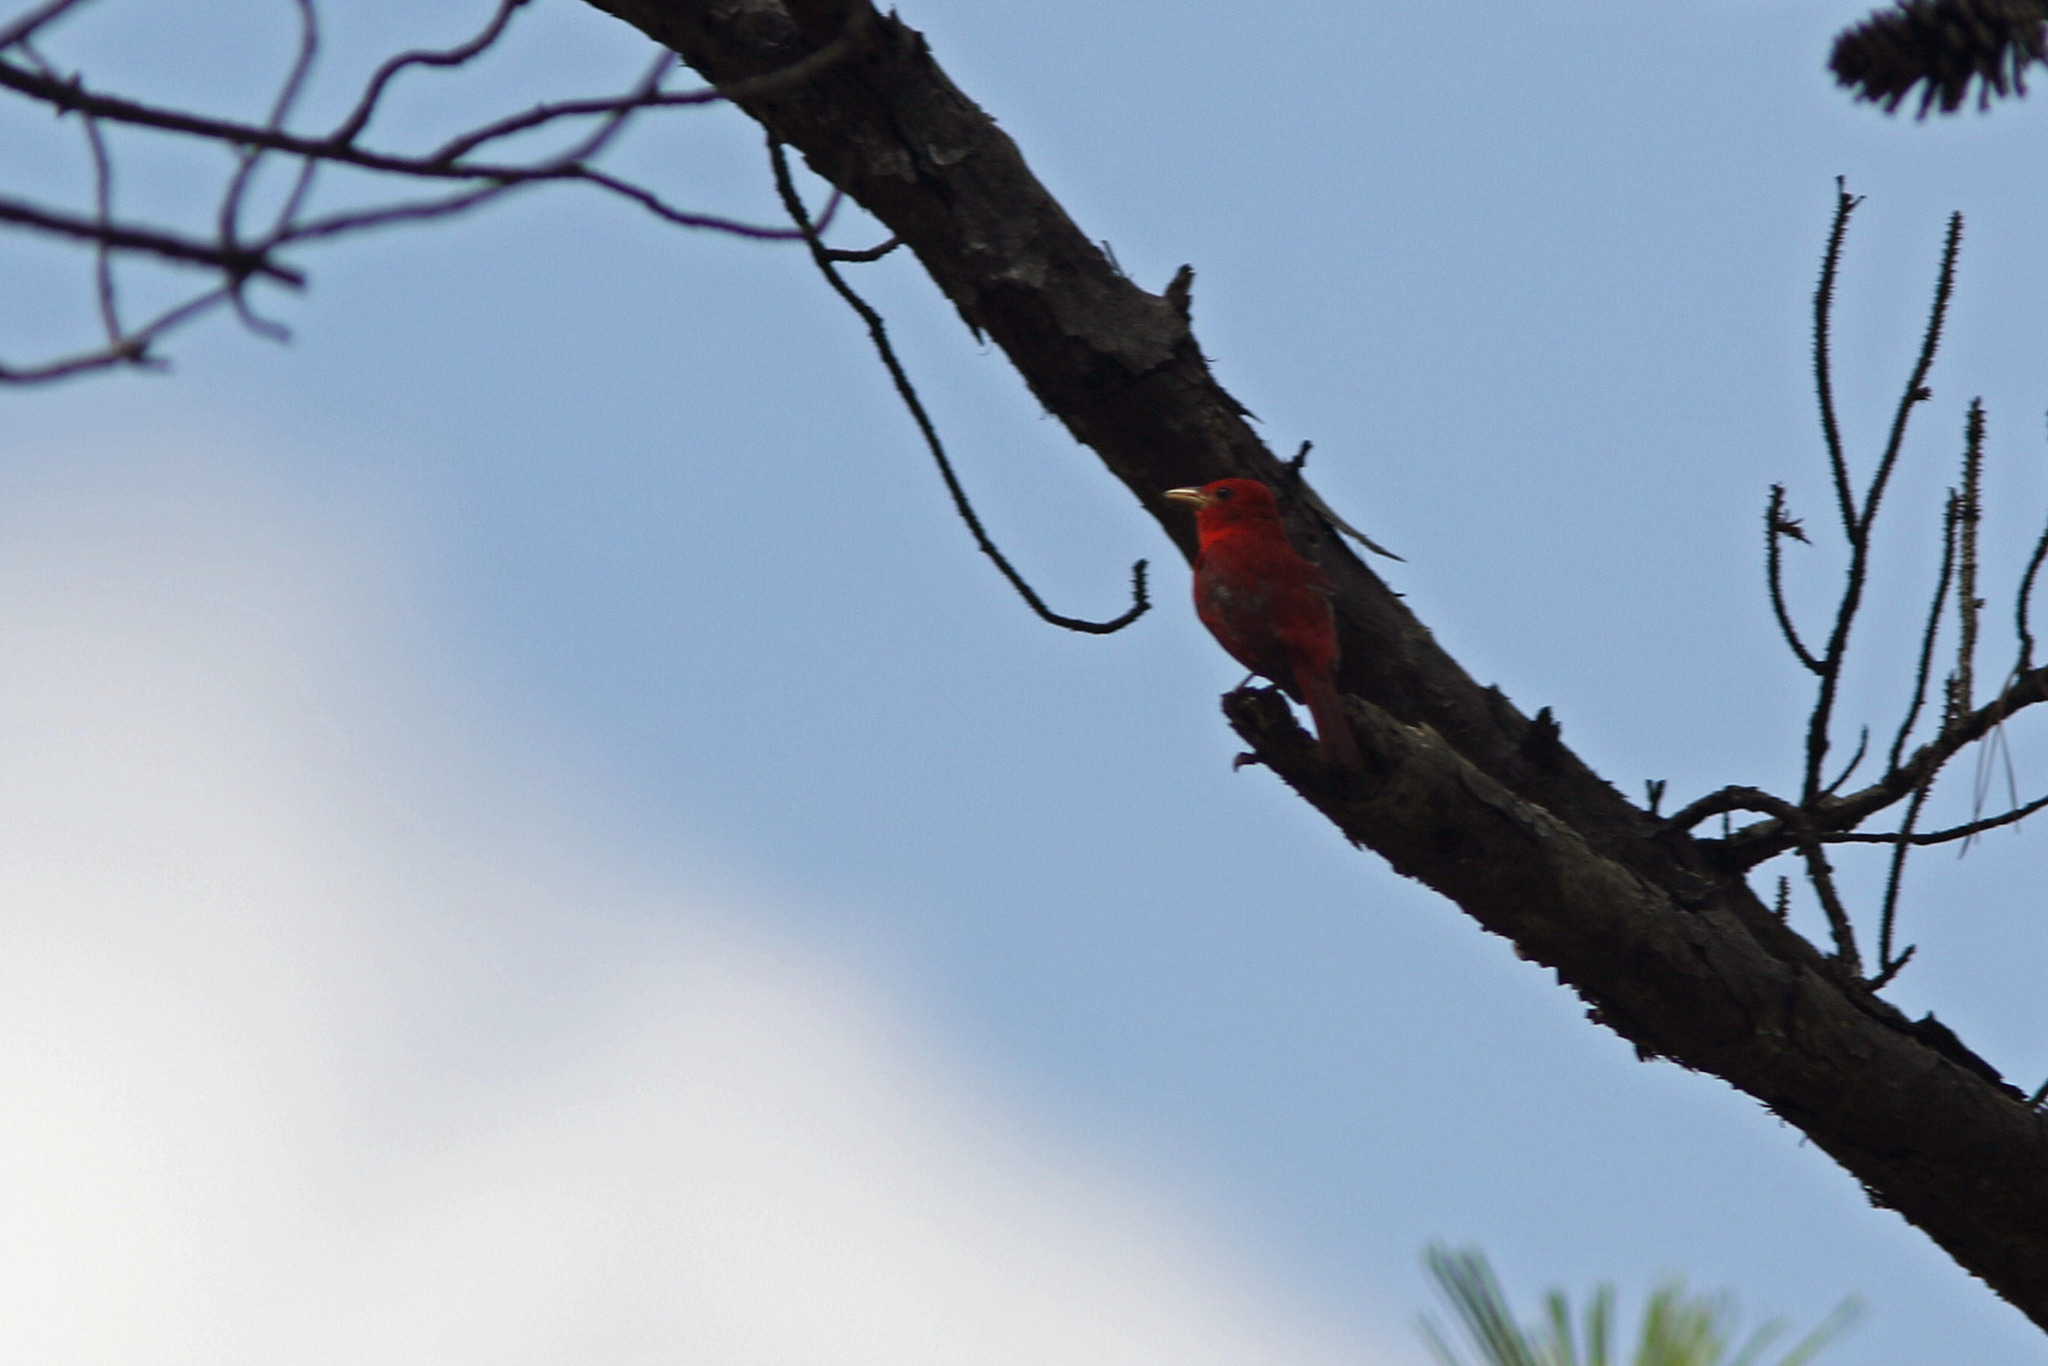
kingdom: Animalia
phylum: Chordata
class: Aves
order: Passeriformes
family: Cardinalidae
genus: Piranga
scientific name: Piranga rubra
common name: Summer tanager
